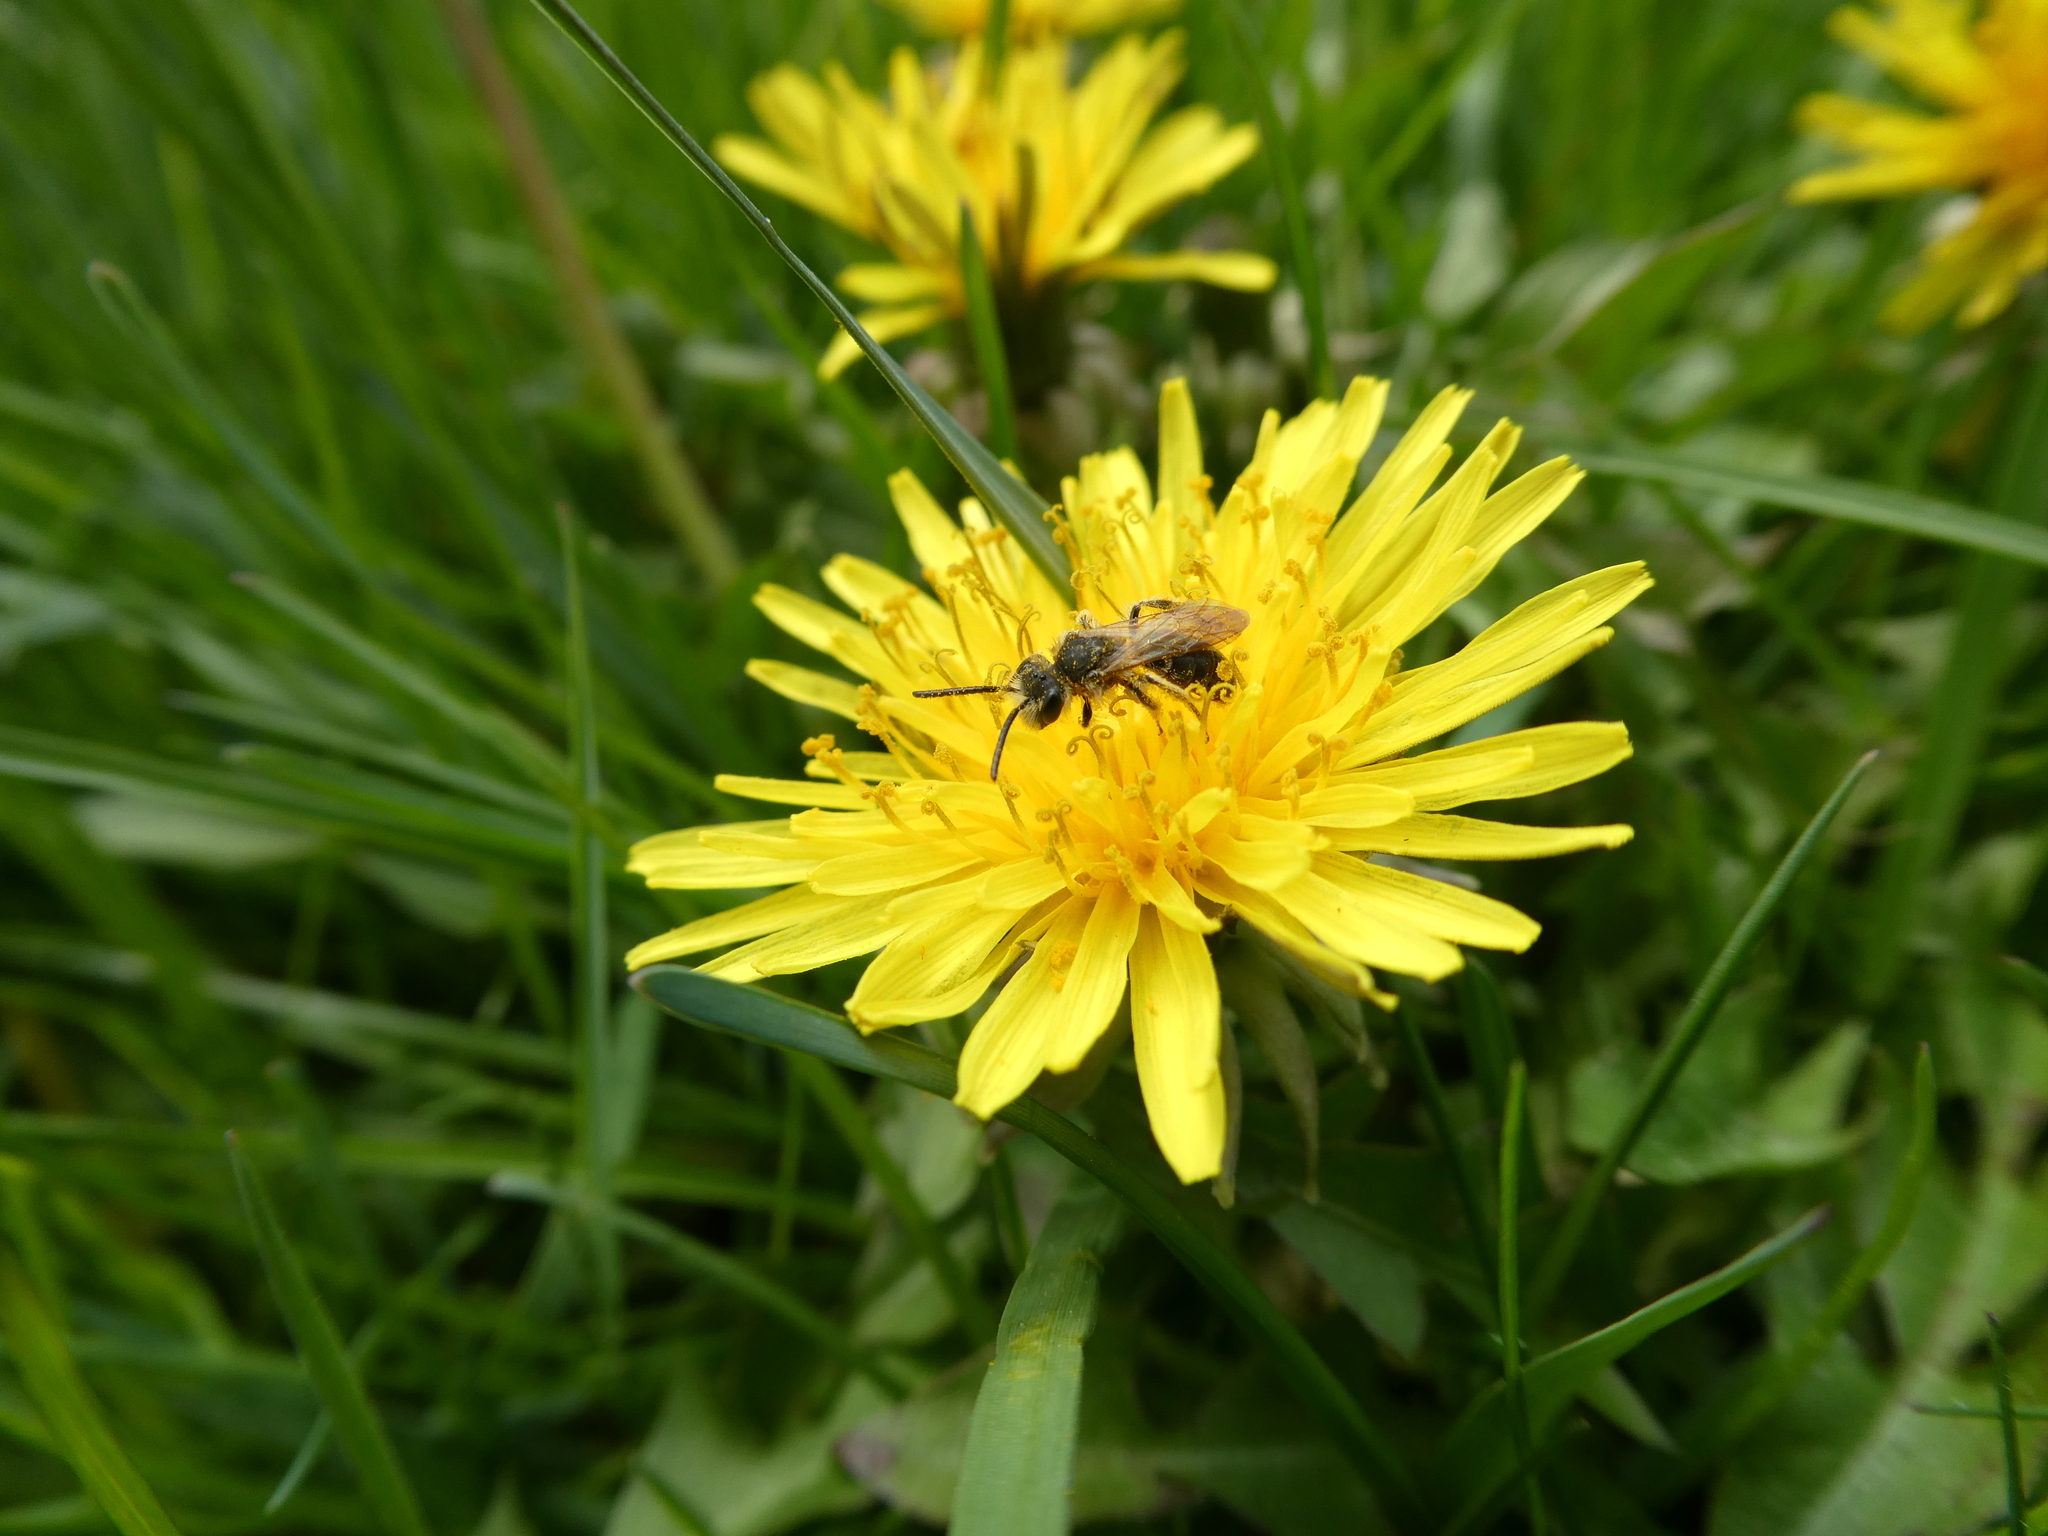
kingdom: Animalia
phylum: Arthropoda
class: Insecta
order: Hymenoptera
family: Andrenidae
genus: Andrena
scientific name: Andrena
